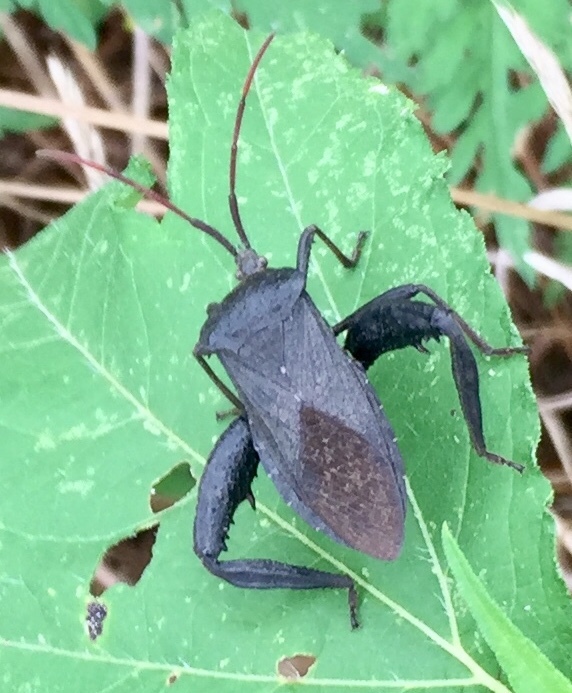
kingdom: Animalia
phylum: Arthropoda
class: Insecta
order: Hemiptera
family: Coreidae
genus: Acanthocephala
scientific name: Acanthocephala femorata
